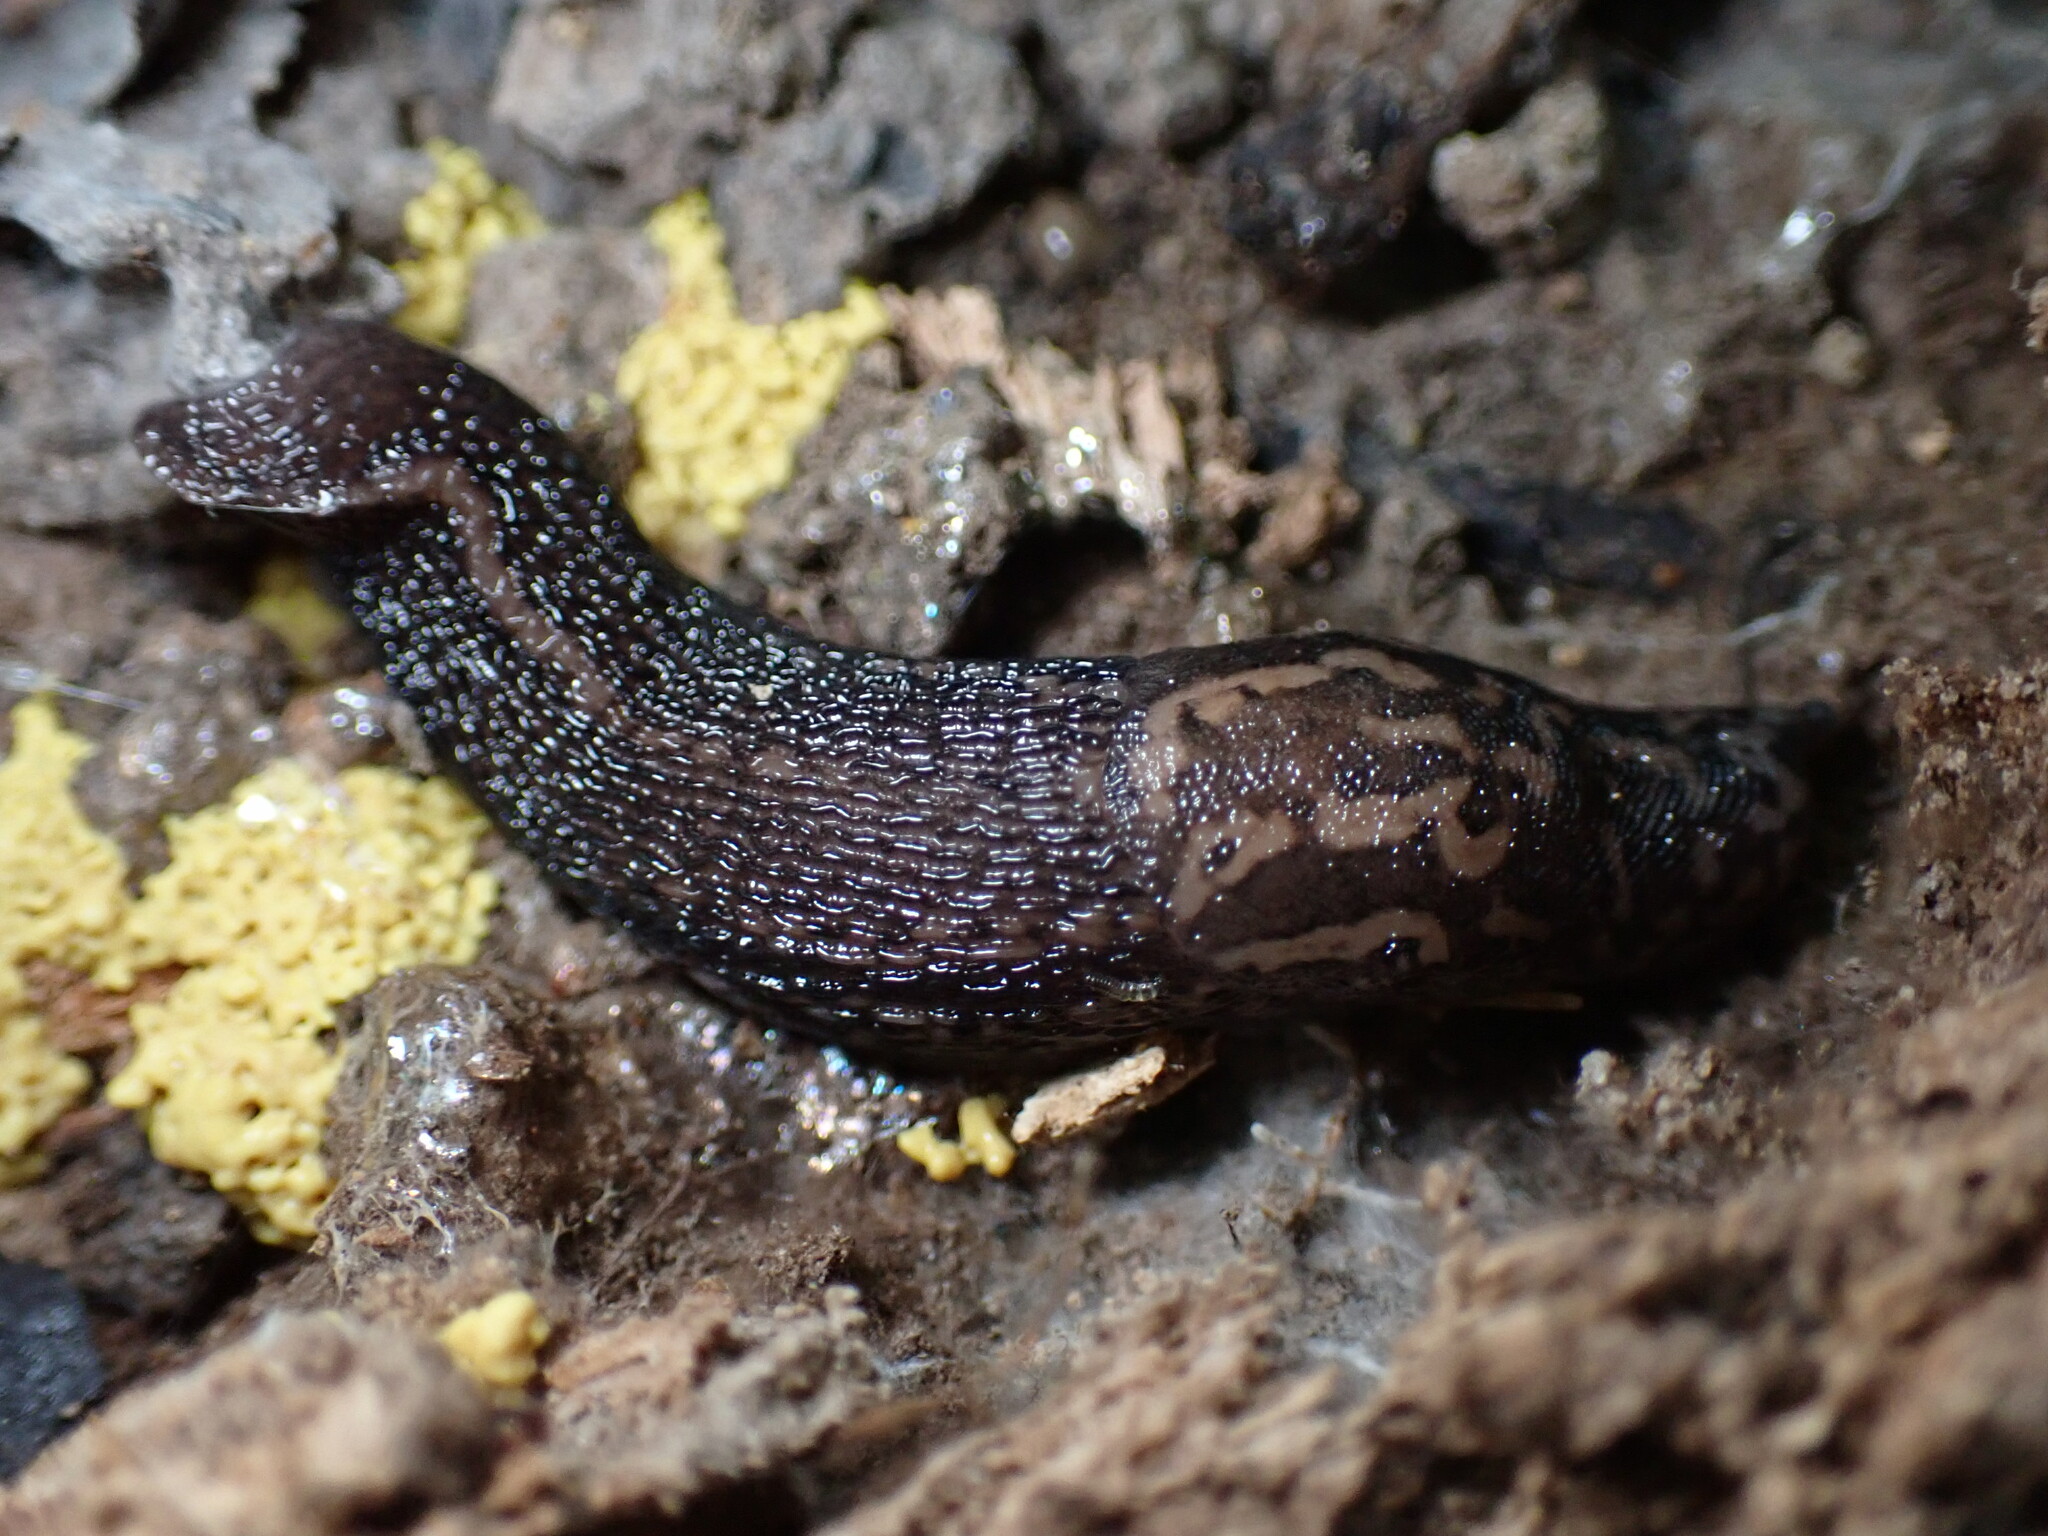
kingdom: Animalia
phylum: Mollusca
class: Gastropoda
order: Stylommatophora
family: Limacidae
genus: Limax
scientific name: Limax maximus
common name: Great grey slug
